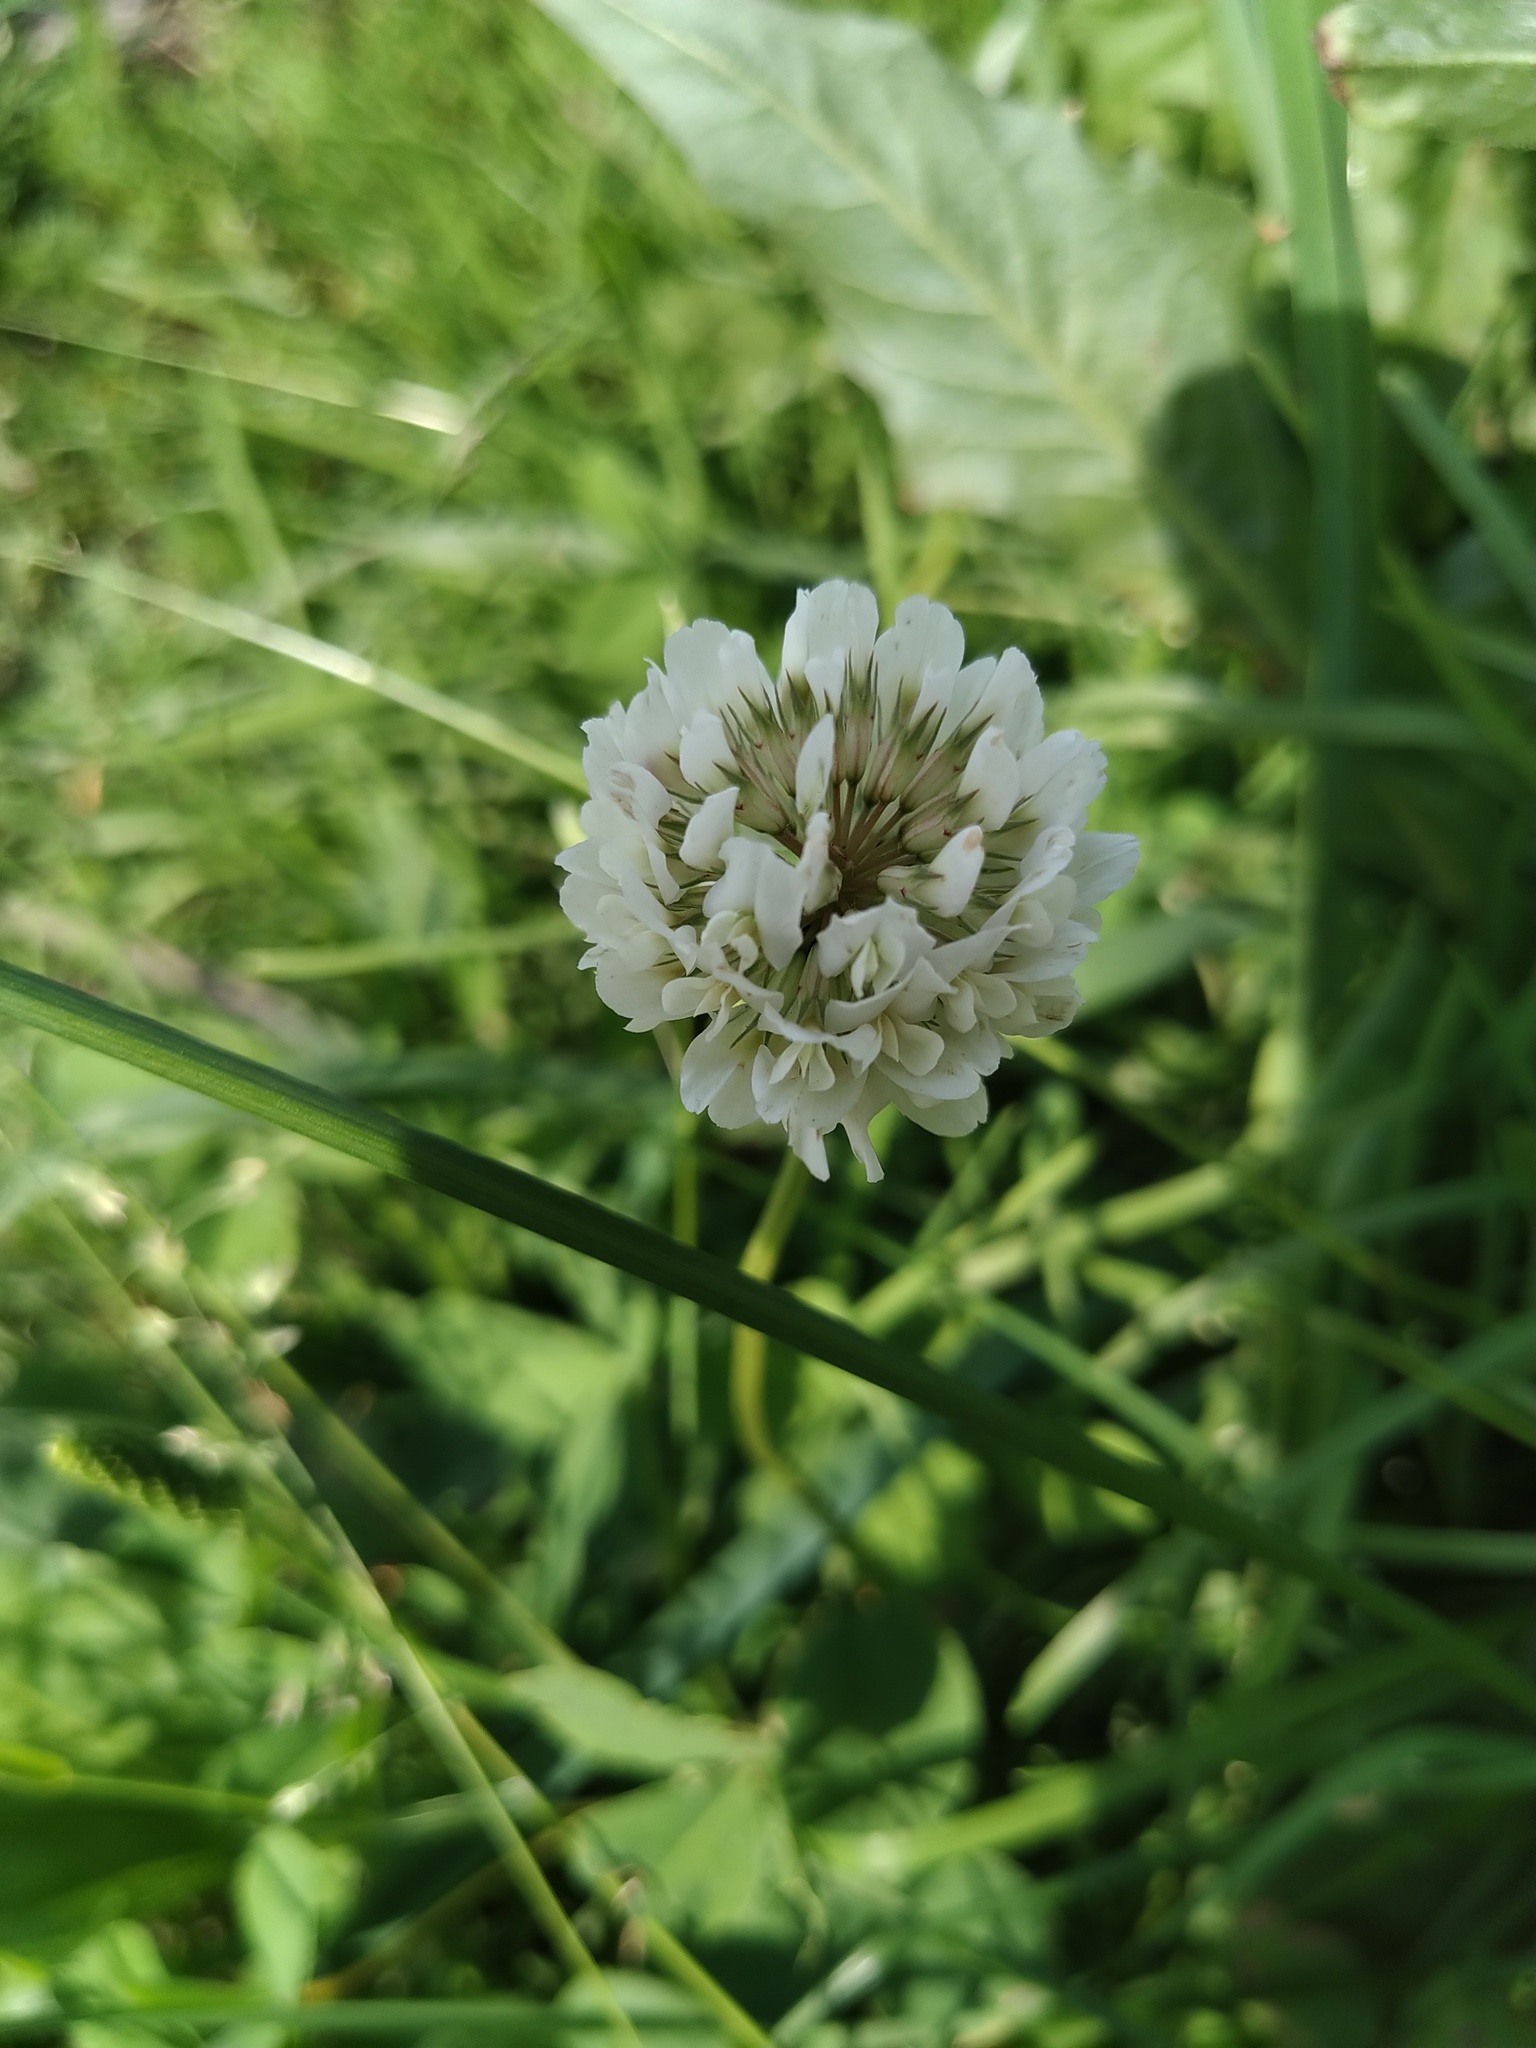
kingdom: Plantae
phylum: Tracheophyta
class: Magnoliopsida
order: Fabales
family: Fabaceae
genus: Trifolium
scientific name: Trifolium repens
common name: White clover
